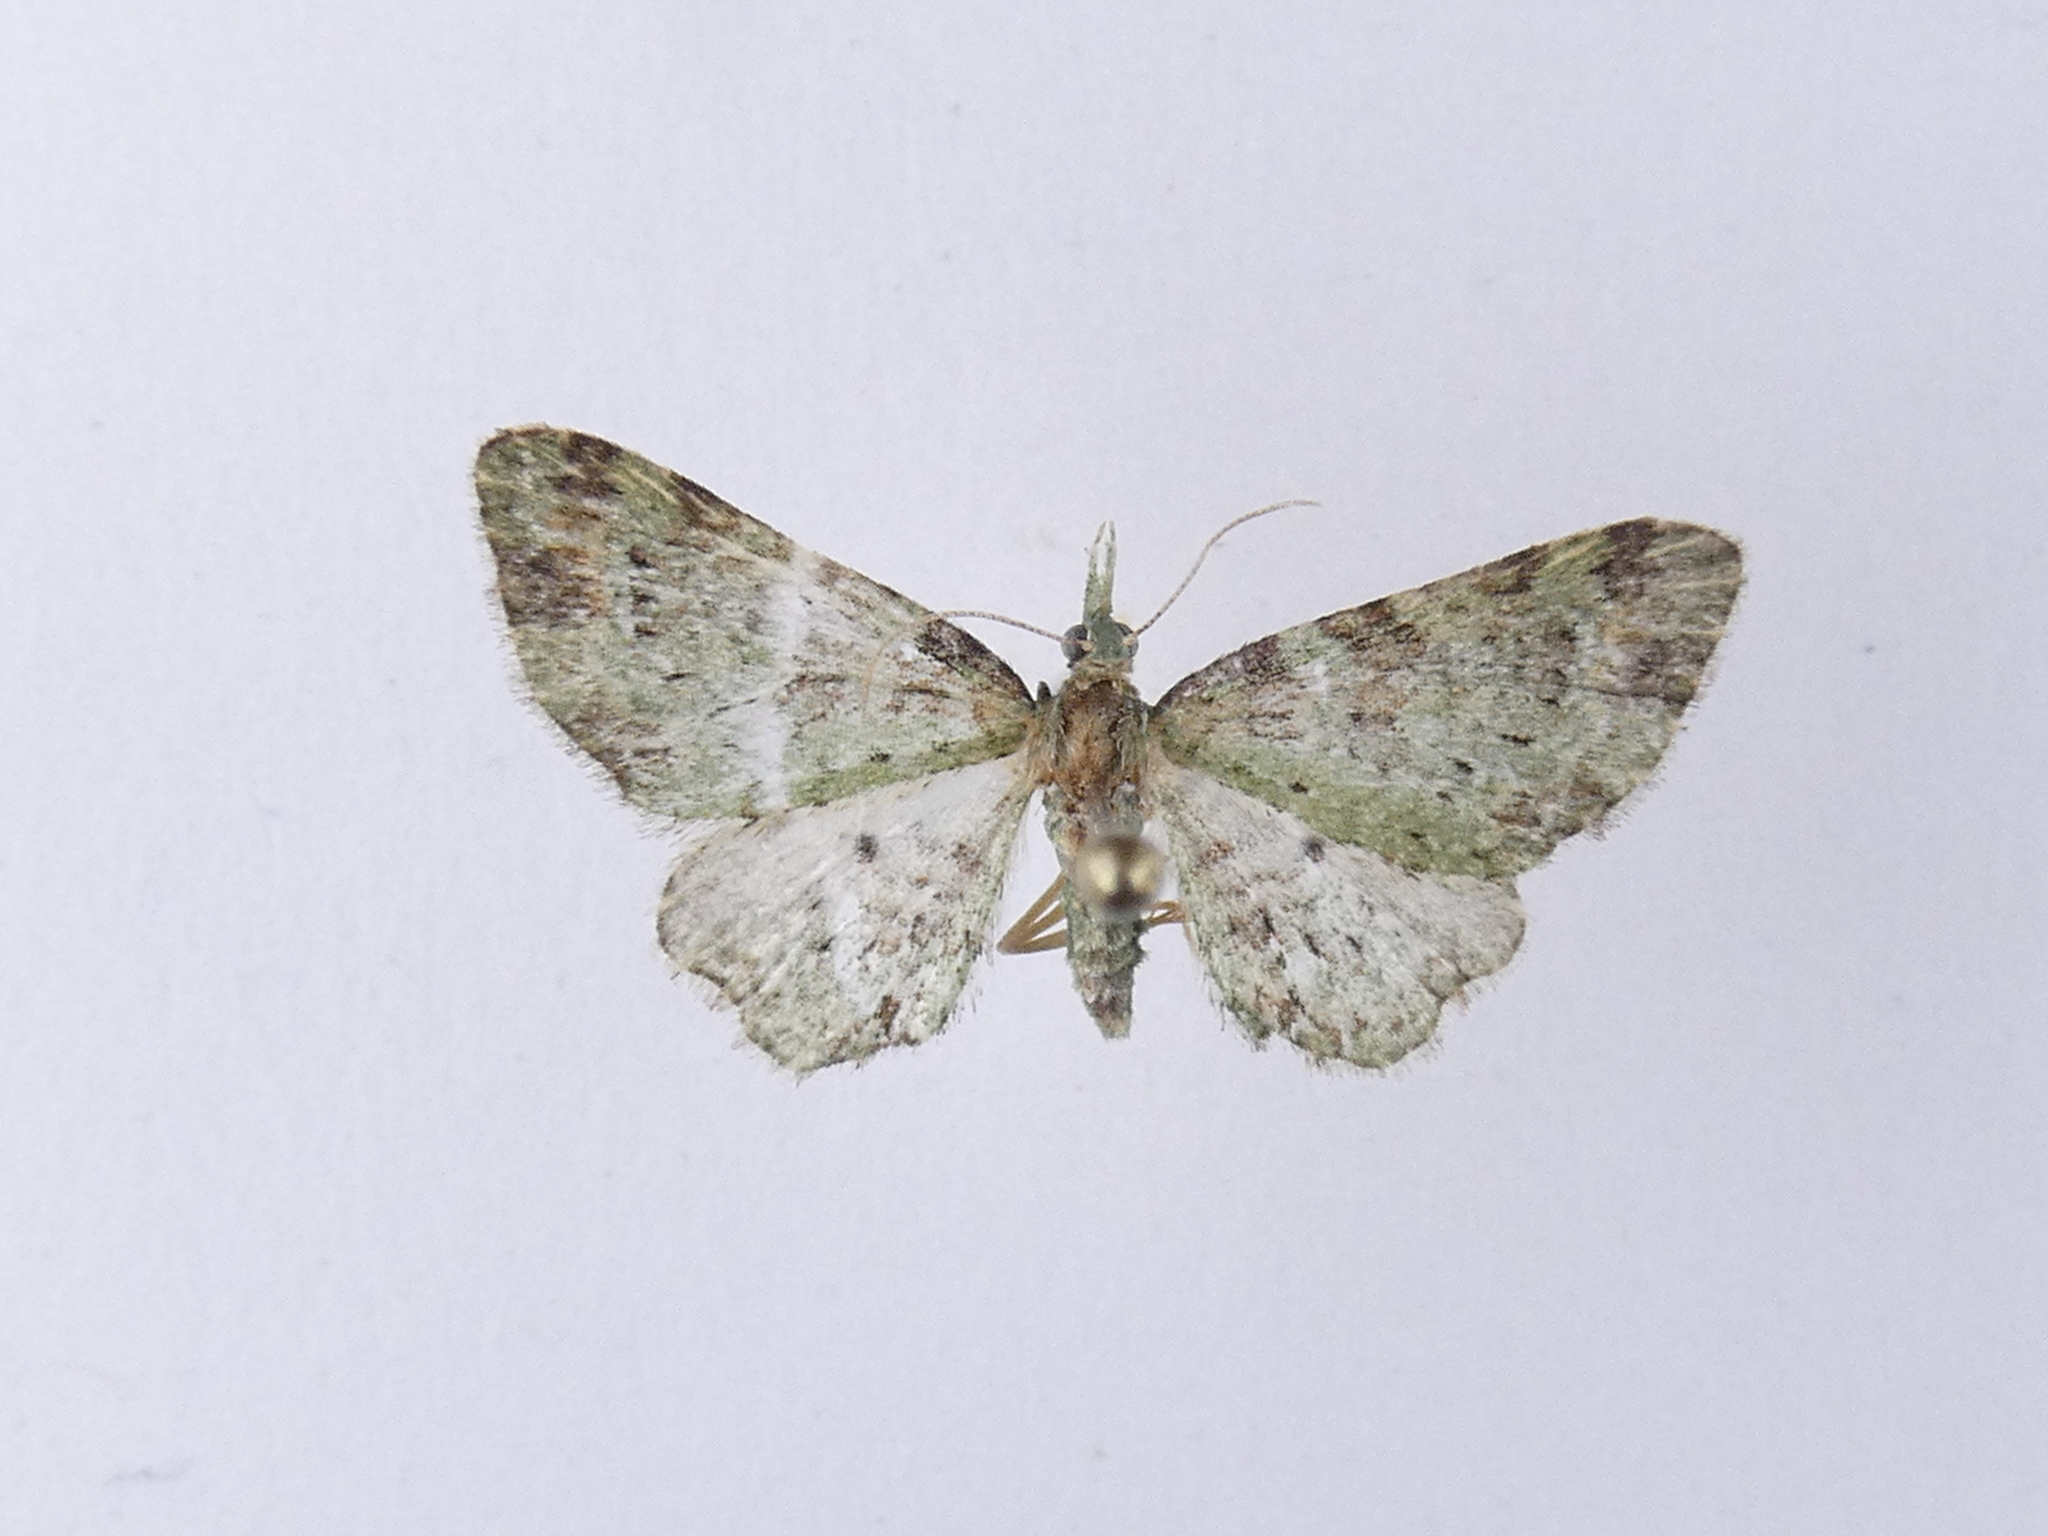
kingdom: Animalia
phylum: Arthropoda
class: Insecta
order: Lepidoptera
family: Geometridae
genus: Pasiphila
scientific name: Pasiphila plinthina
